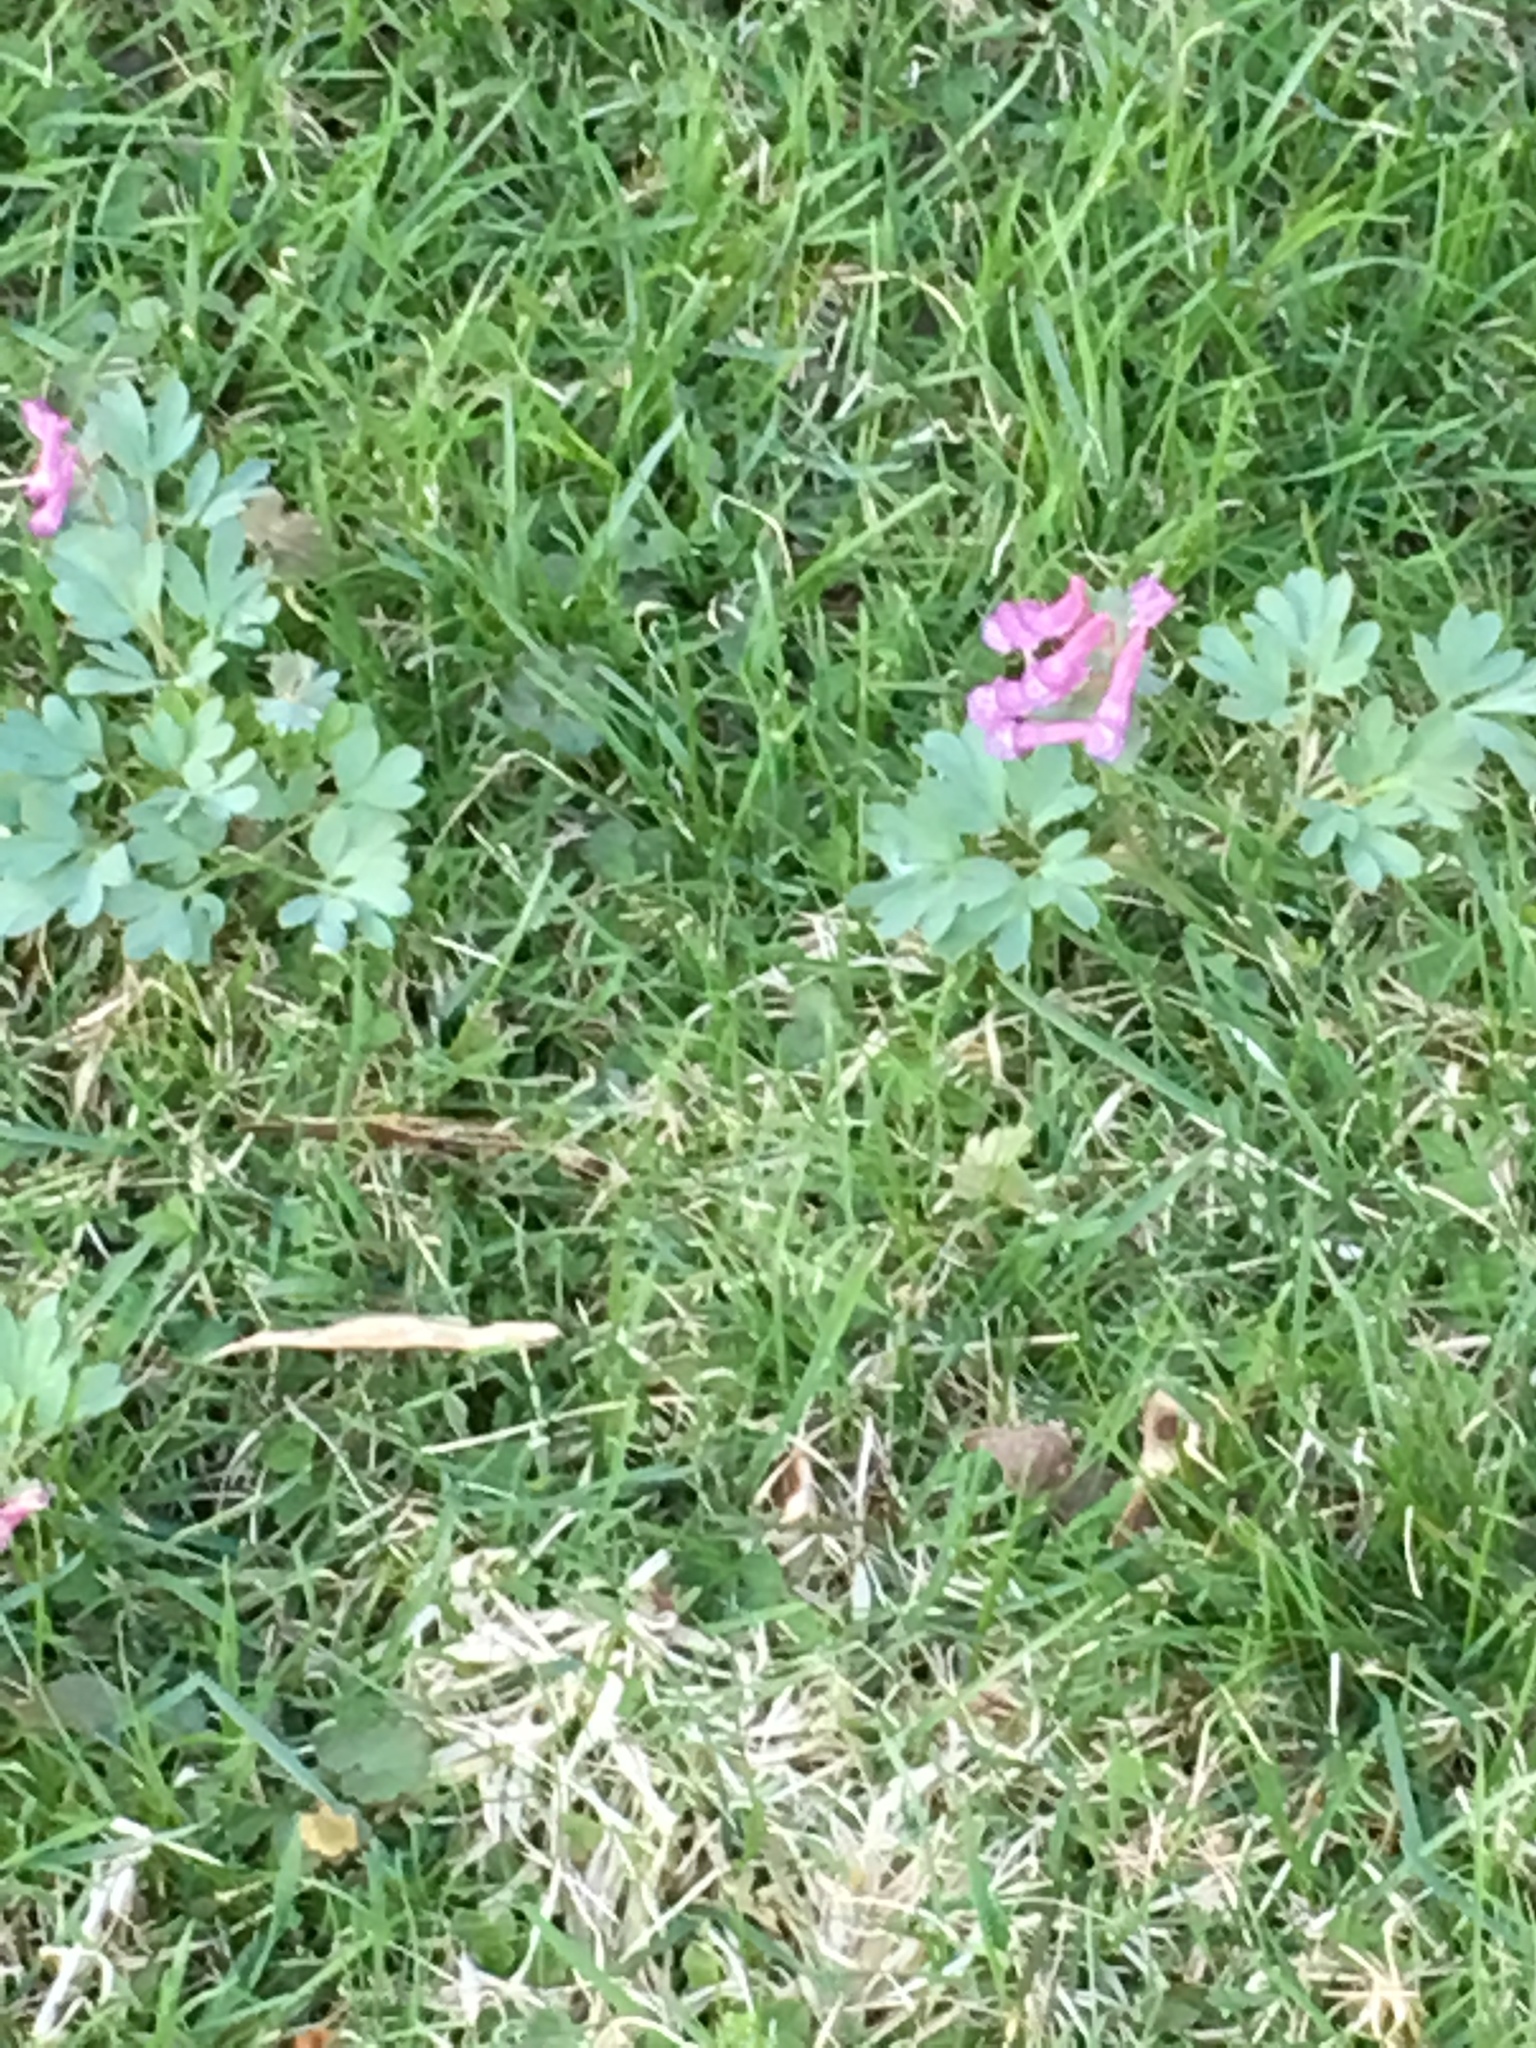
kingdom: Plantae
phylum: Tracheophyta
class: Magnoliopsida
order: Ranunculales
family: Papaveraceae
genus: Corydalis
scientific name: Corydalis solida
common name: Bird-in-a-bush
